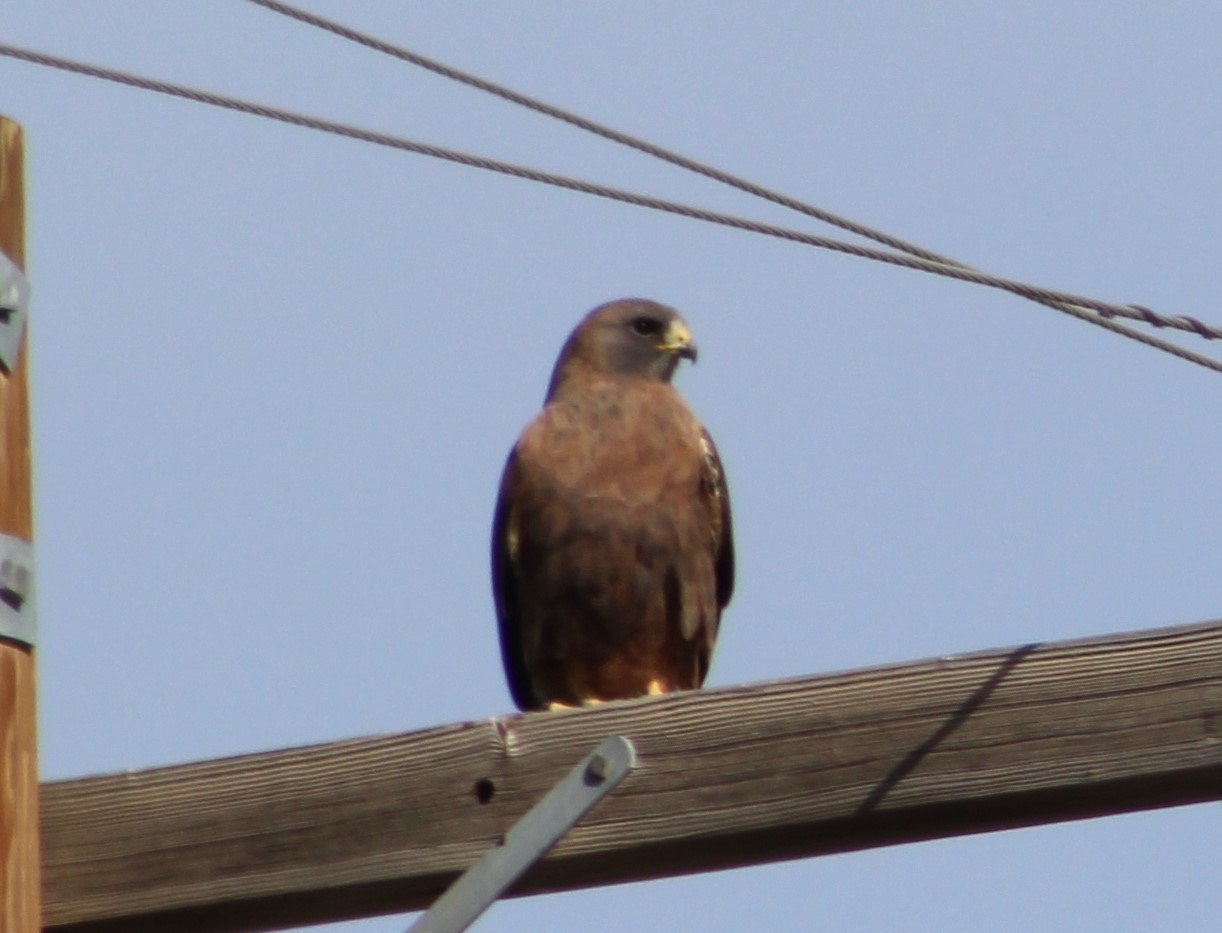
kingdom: Animalia
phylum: Chordata
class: Aves
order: Accipitriformes
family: Accipitridae
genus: Buteo
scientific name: Buteo swainsoni
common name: Swainson's hawk
